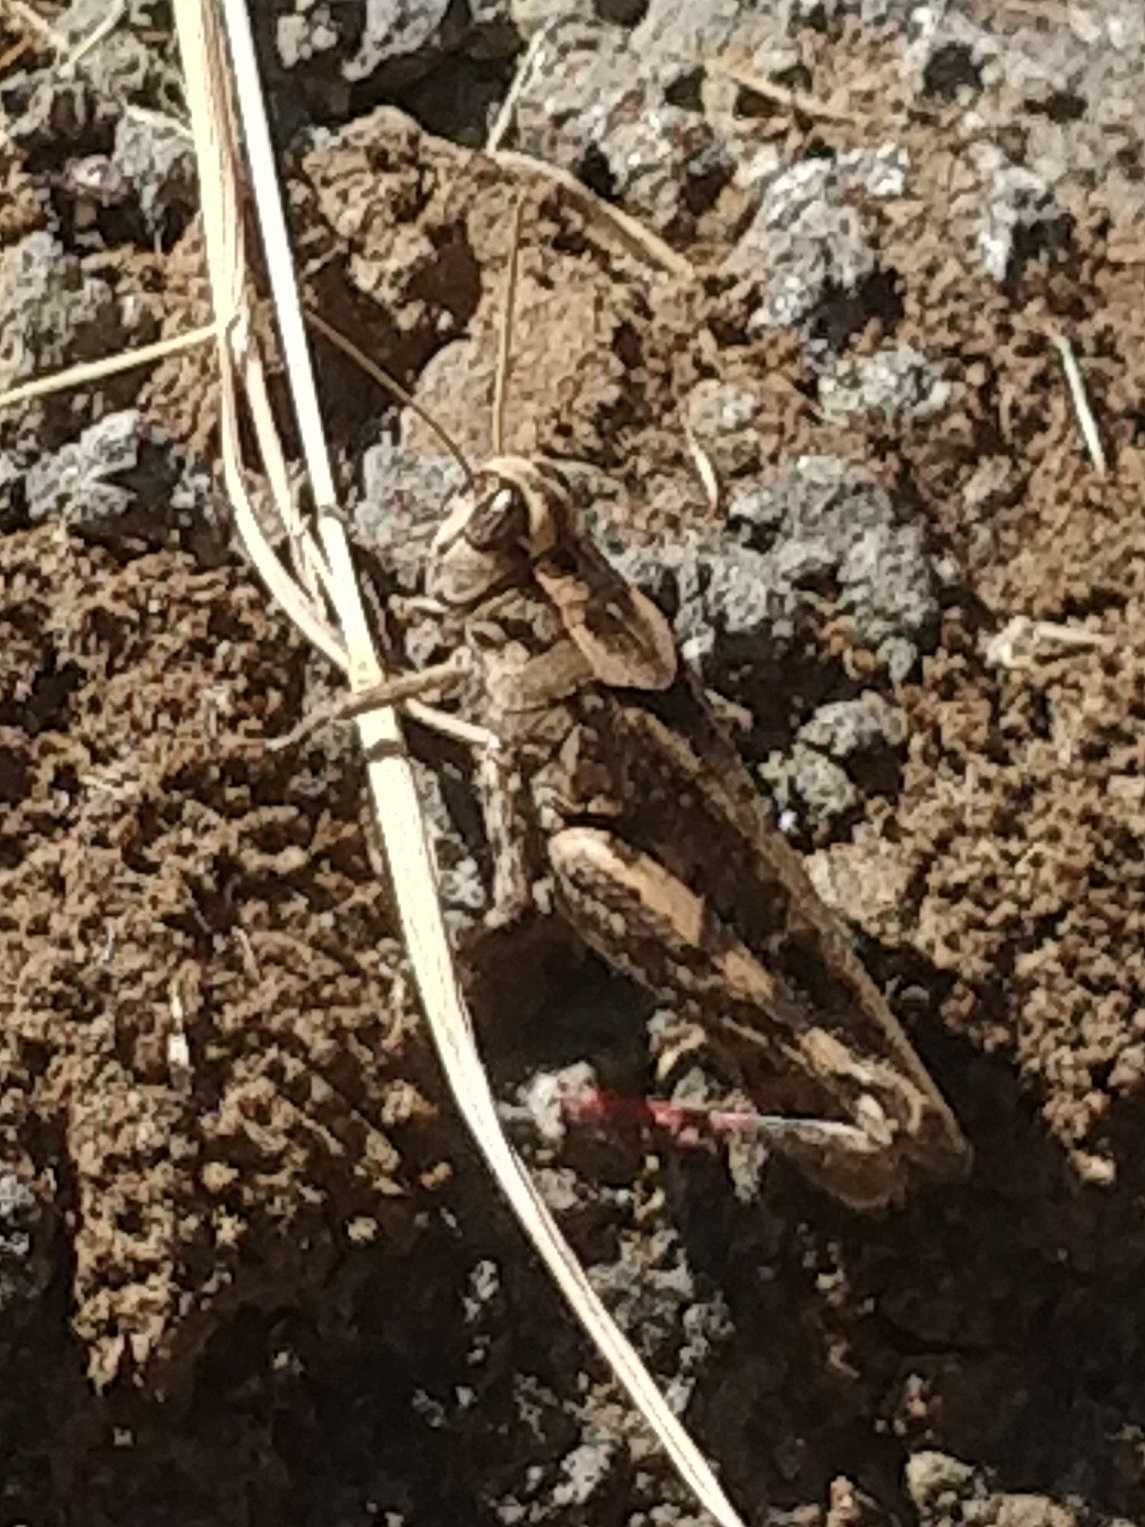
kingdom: Animalia
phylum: Arthropoda
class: Insecta
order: Orthoptera
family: Acrididae
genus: Calliptamus
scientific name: Calliptamus madeirae
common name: Madeira pincer grasshopper
